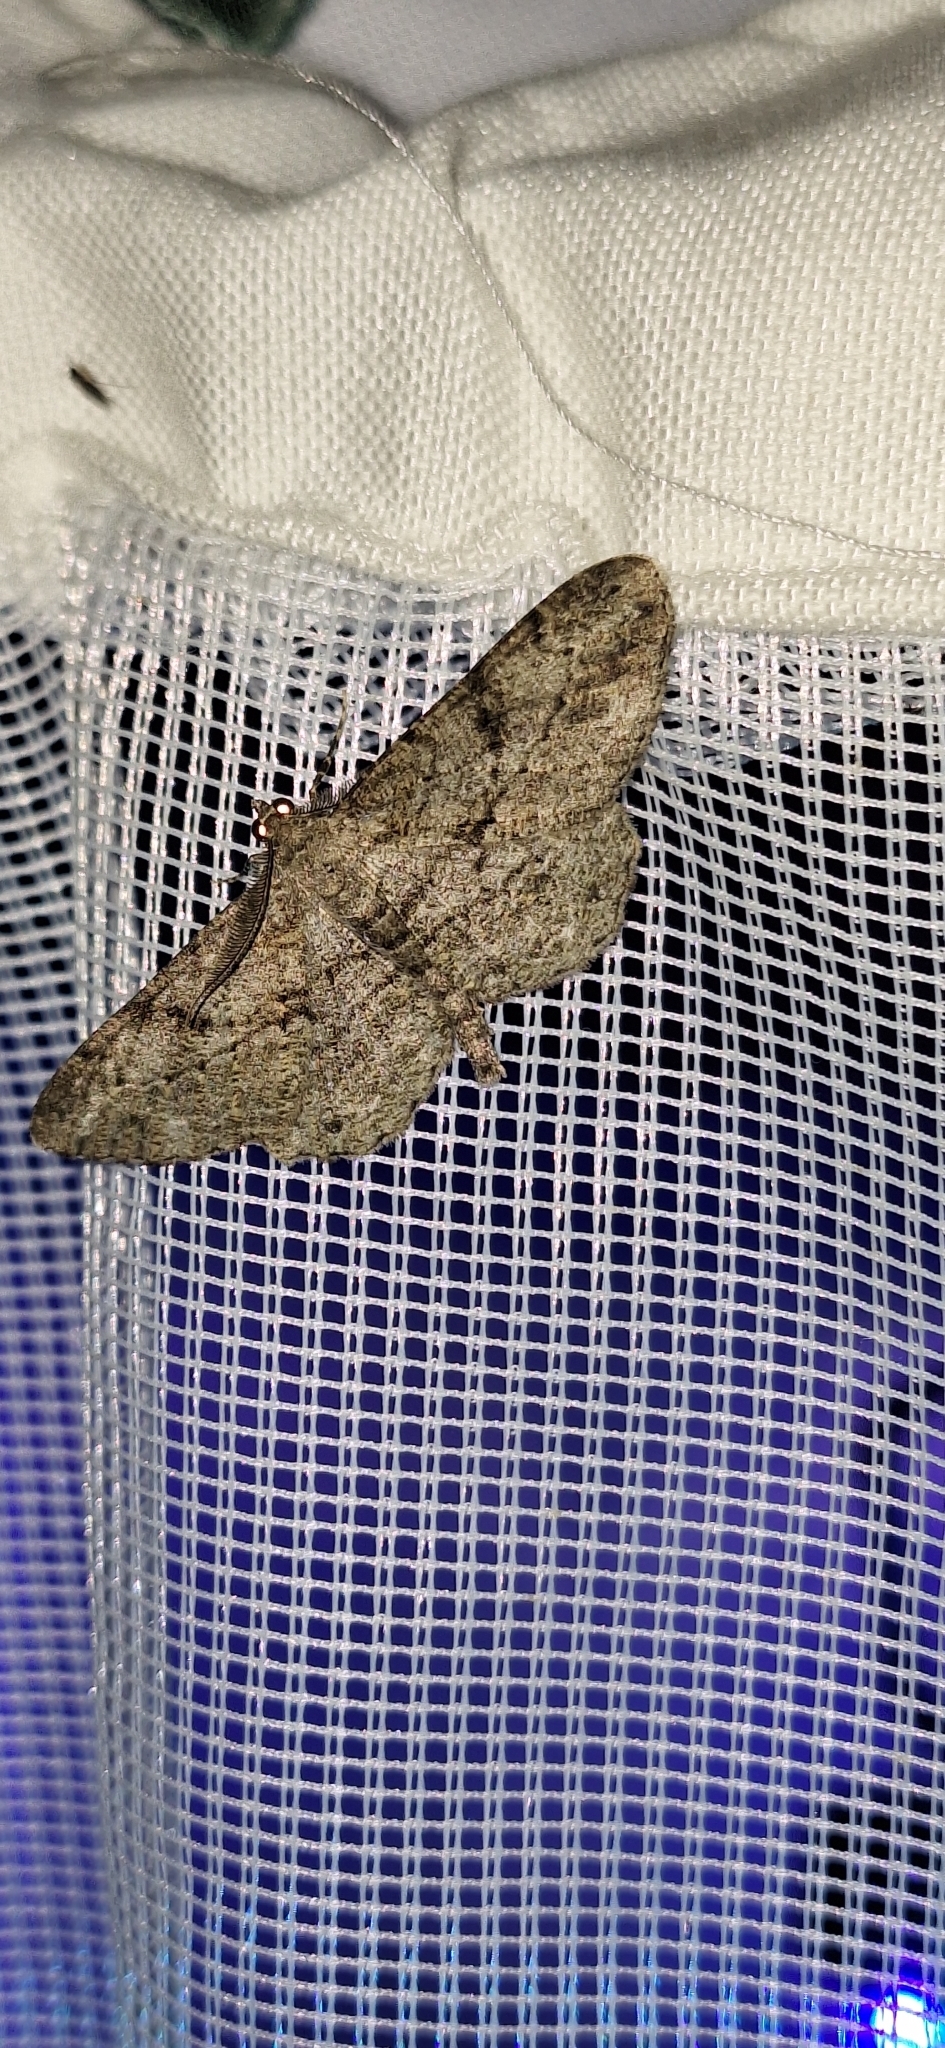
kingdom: Animalia
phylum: Arthropoda
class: Insecta
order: Lepidoptera
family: Geometridae
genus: Peribatodes
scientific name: Peribatodes rhomboidaria
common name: Willow beauty
